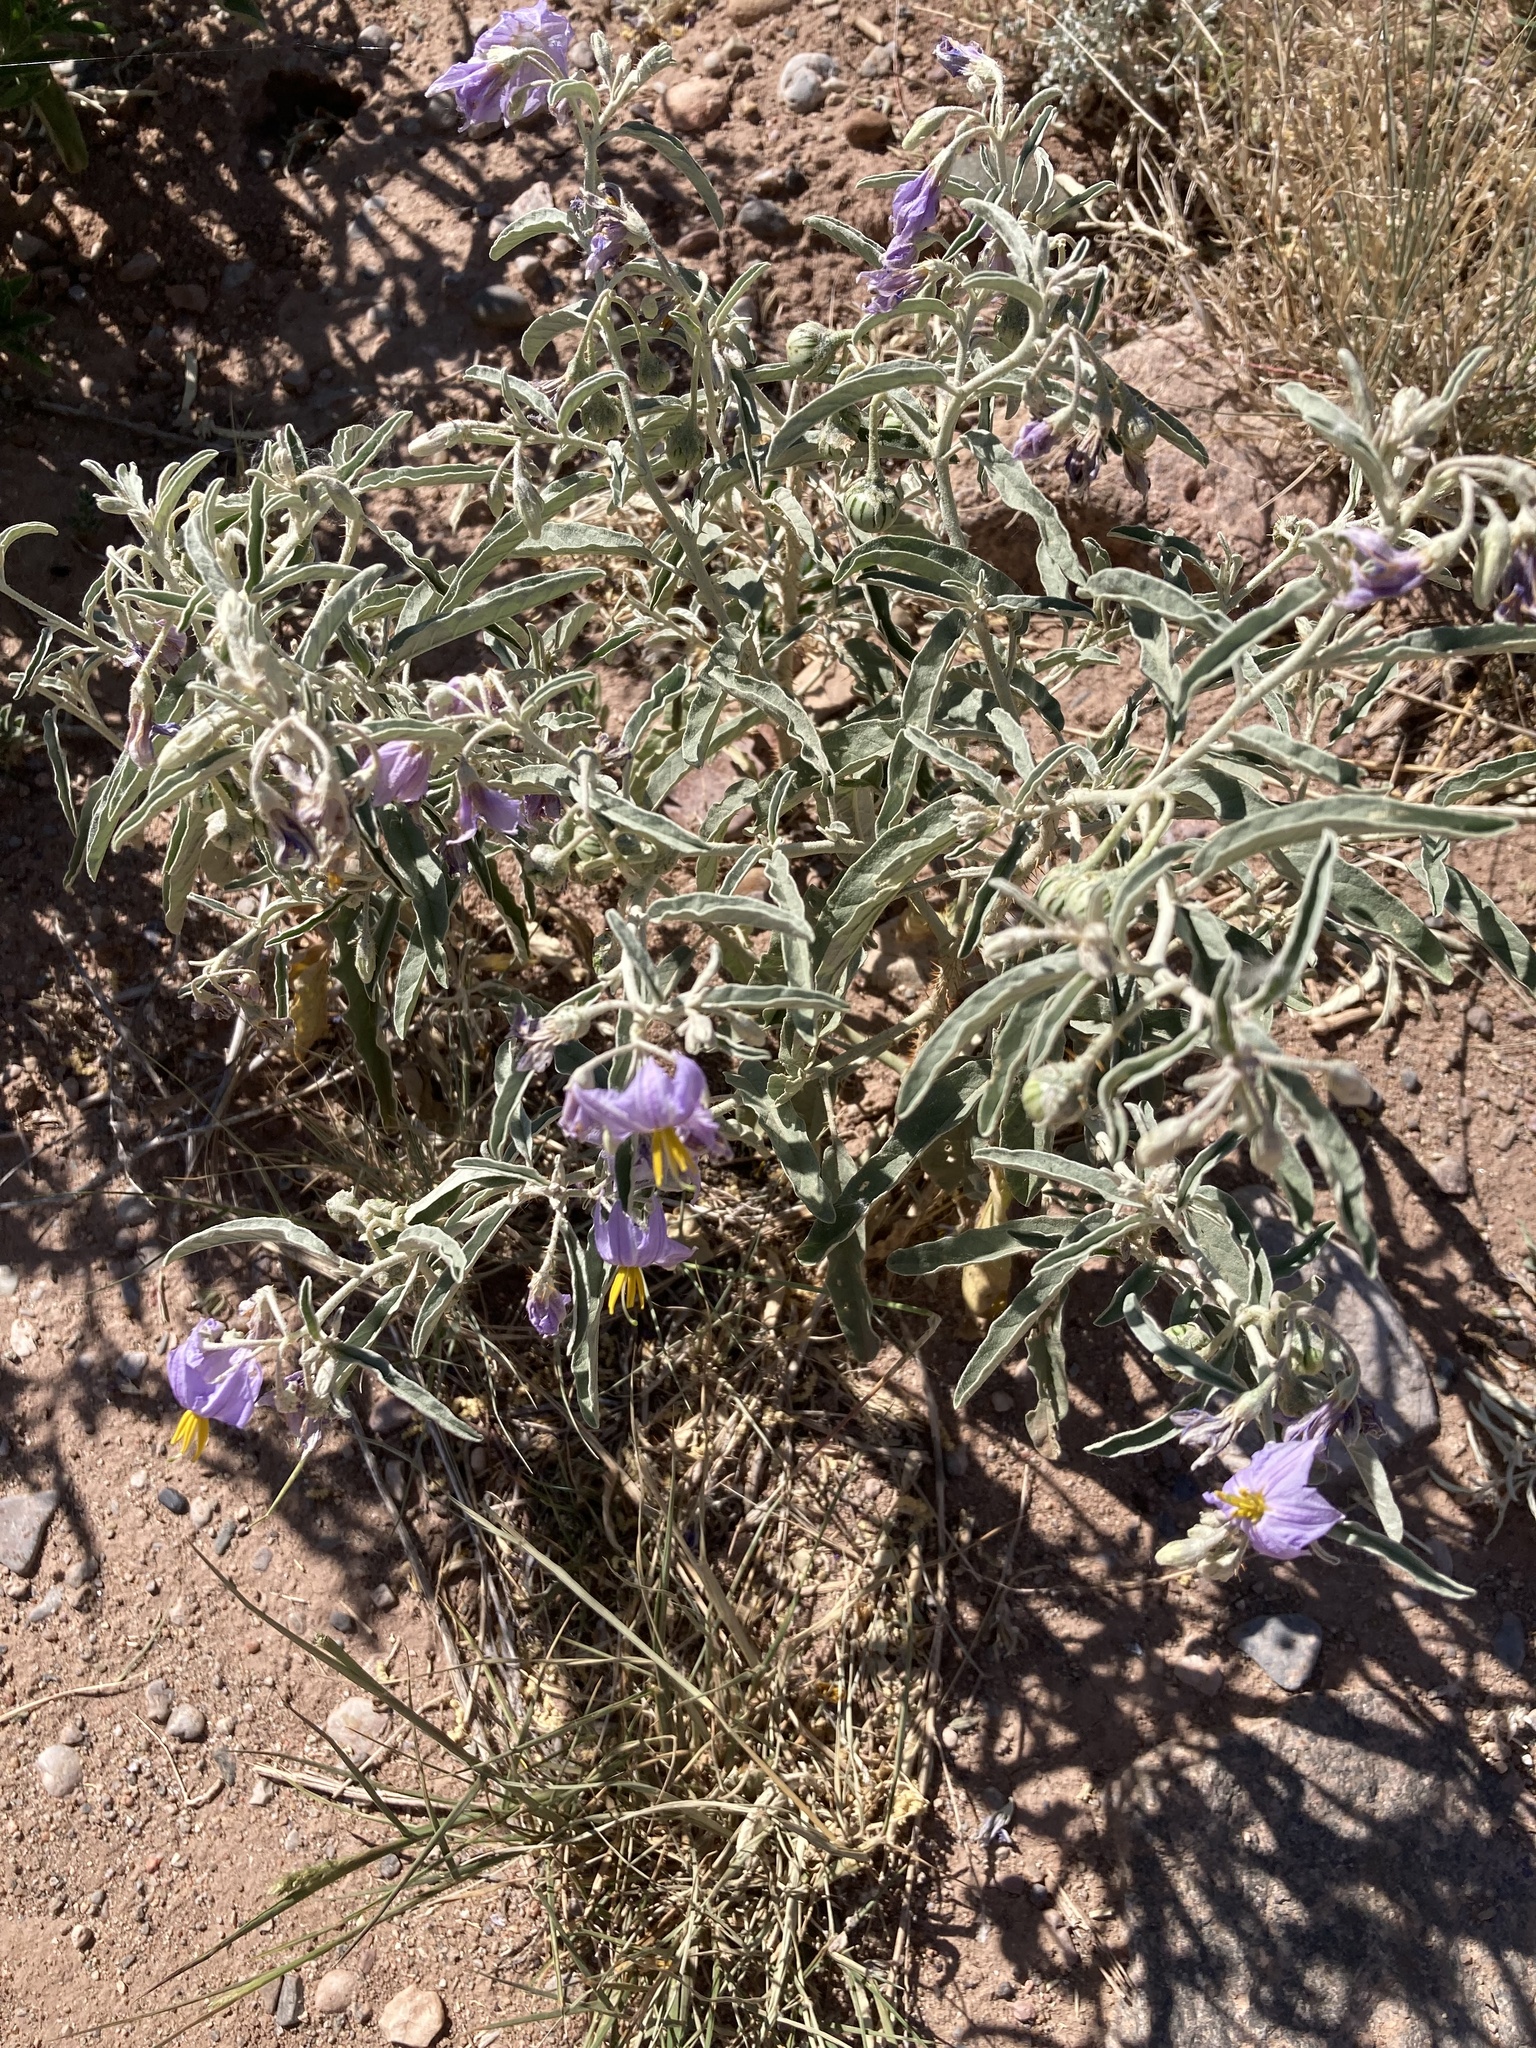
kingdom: Plantae
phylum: Tracheophyta
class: Magnoliopsida
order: Solanales
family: Solanaceae
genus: Solanum
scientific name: Solanum elaeagnifolium
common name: Silverleaf nightshade
